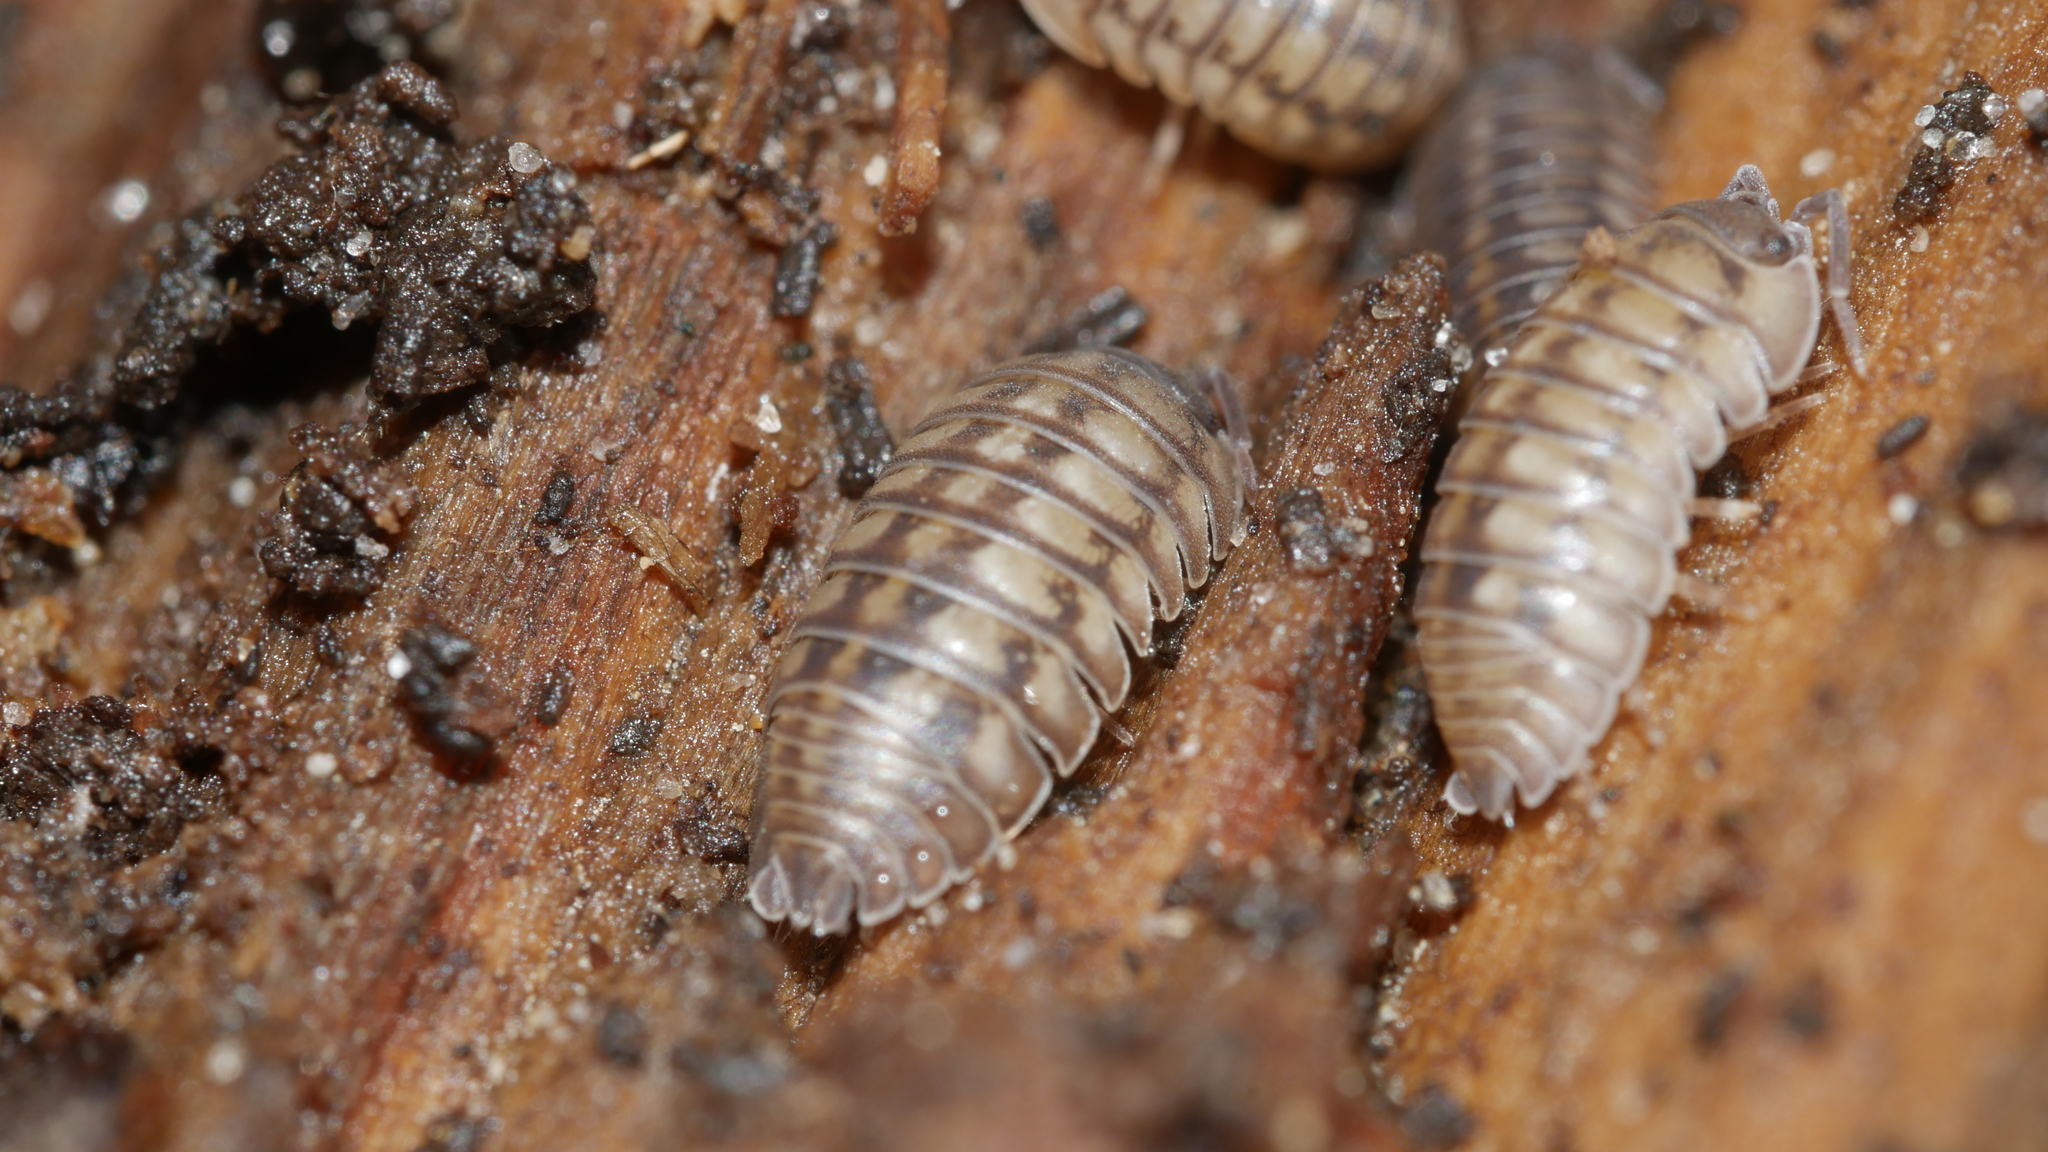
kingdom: Animalia
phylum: Arthropoda
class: Malacostraca
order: Isopoda
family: Armadillidiidae
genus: Armadillidium
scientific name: Armadillidium nasatum
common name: Isopod
